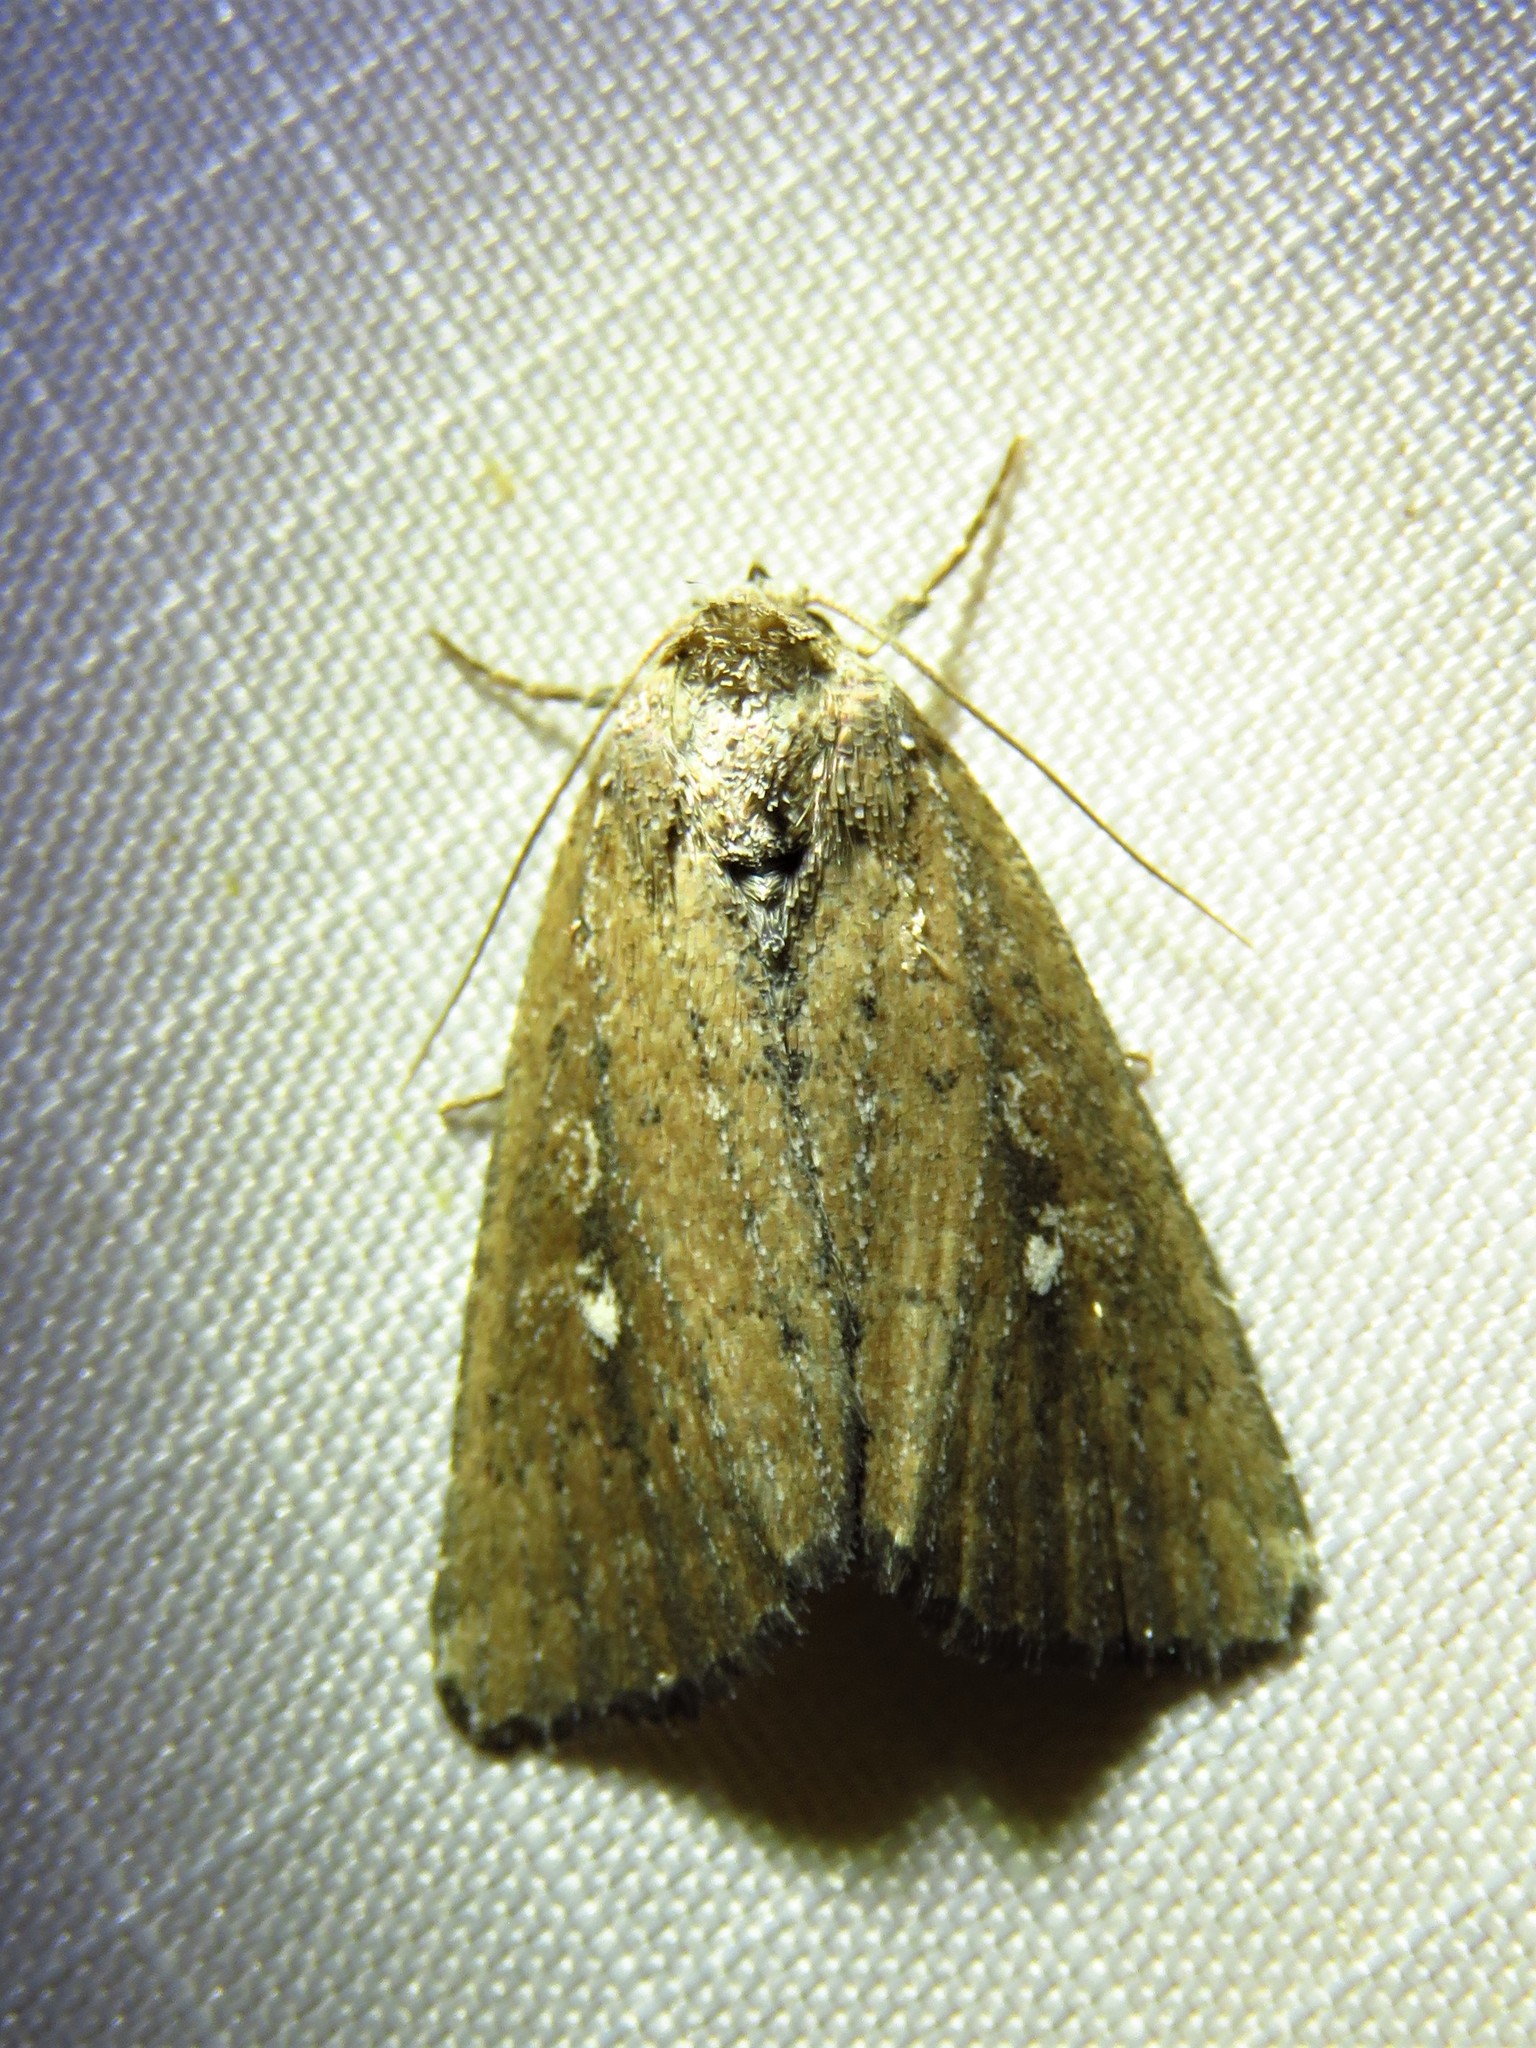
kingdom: Animalia
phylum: Arthropoda
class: Insecta
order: Lepidoptera
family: Noctuidae
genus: Condica
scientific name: Condica videns
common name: White-dotted groundling
